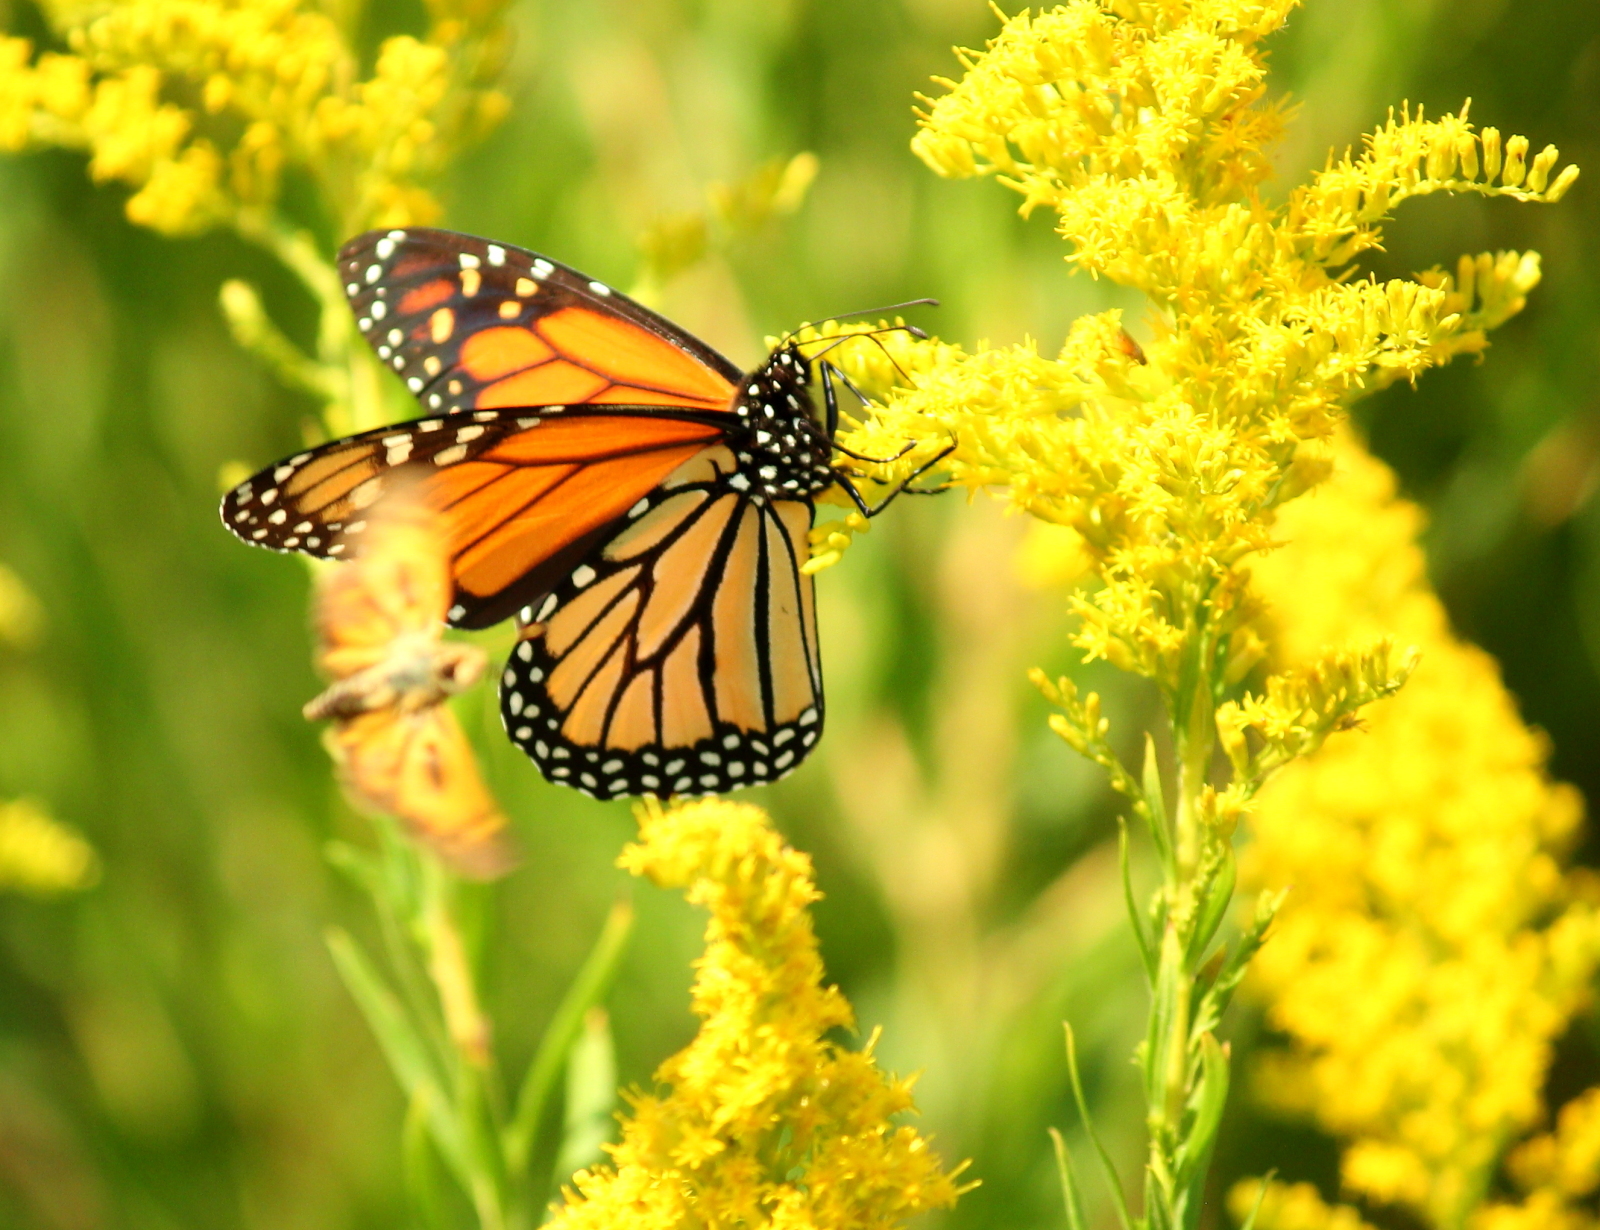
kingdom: Animalia
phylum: Arthropoda
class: Insecta
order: Lepidoptera
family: Nymphalidae
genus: Danaus
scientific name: Danaus plexippus
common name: Monarch
